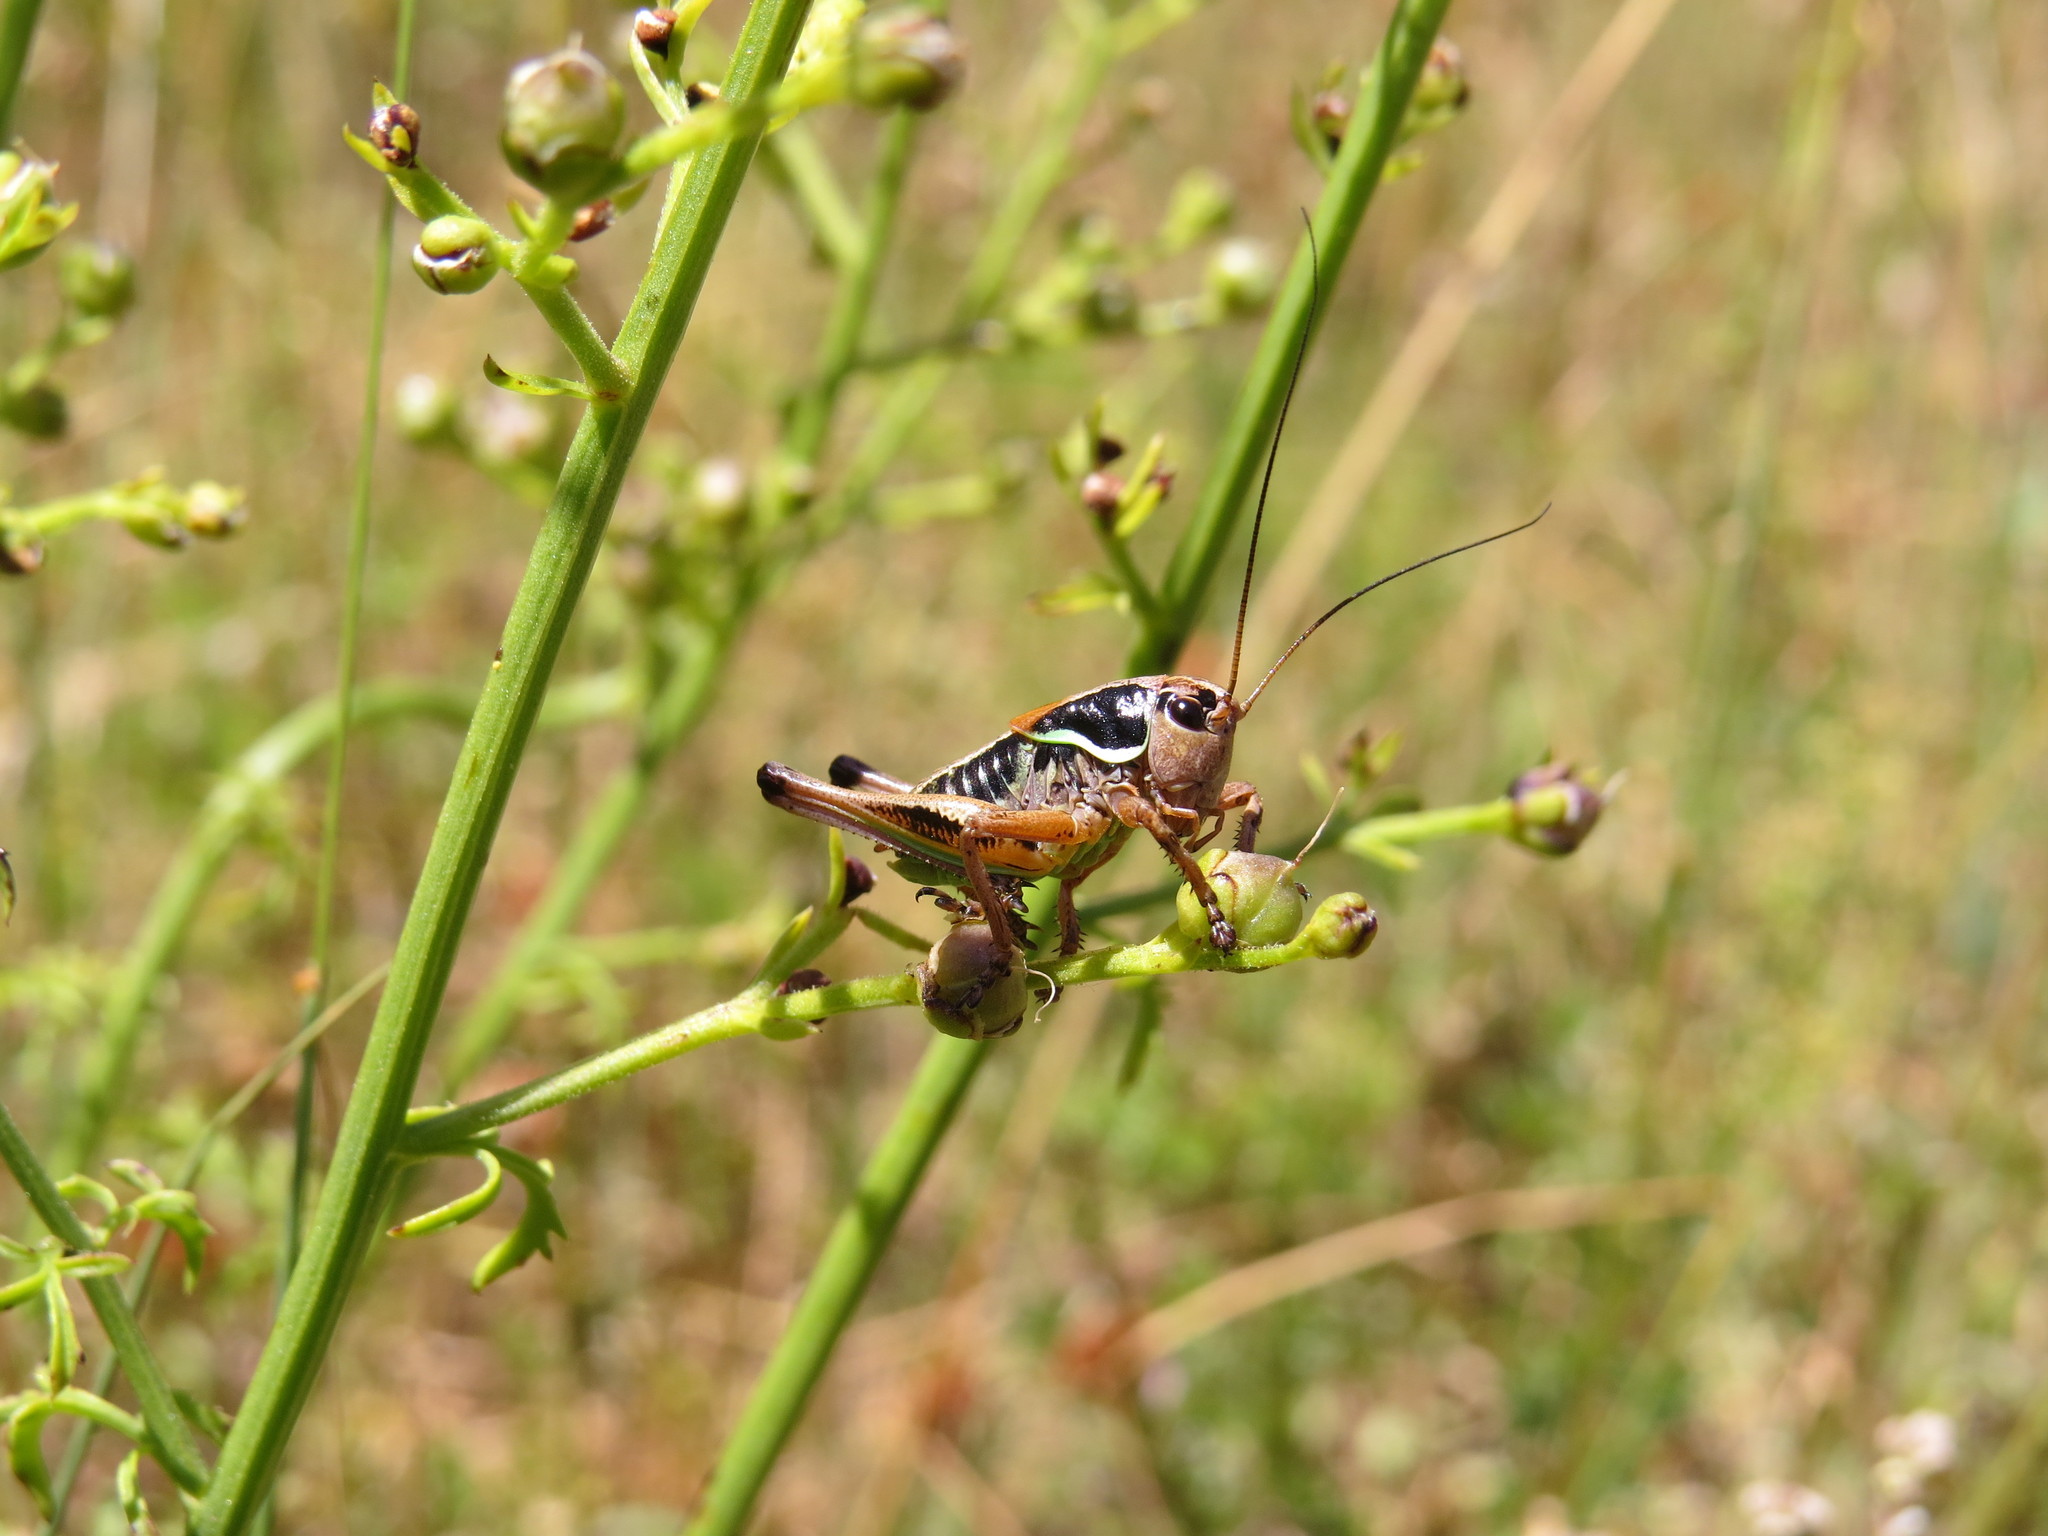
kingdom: Animalia
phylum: Arthropoda
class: Insecta
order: Orthoptera
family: Tettigoniidae
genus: Anonconotus
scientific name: Anonconotus ghilianii
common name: Ghiliani's alpine bush-cricket
